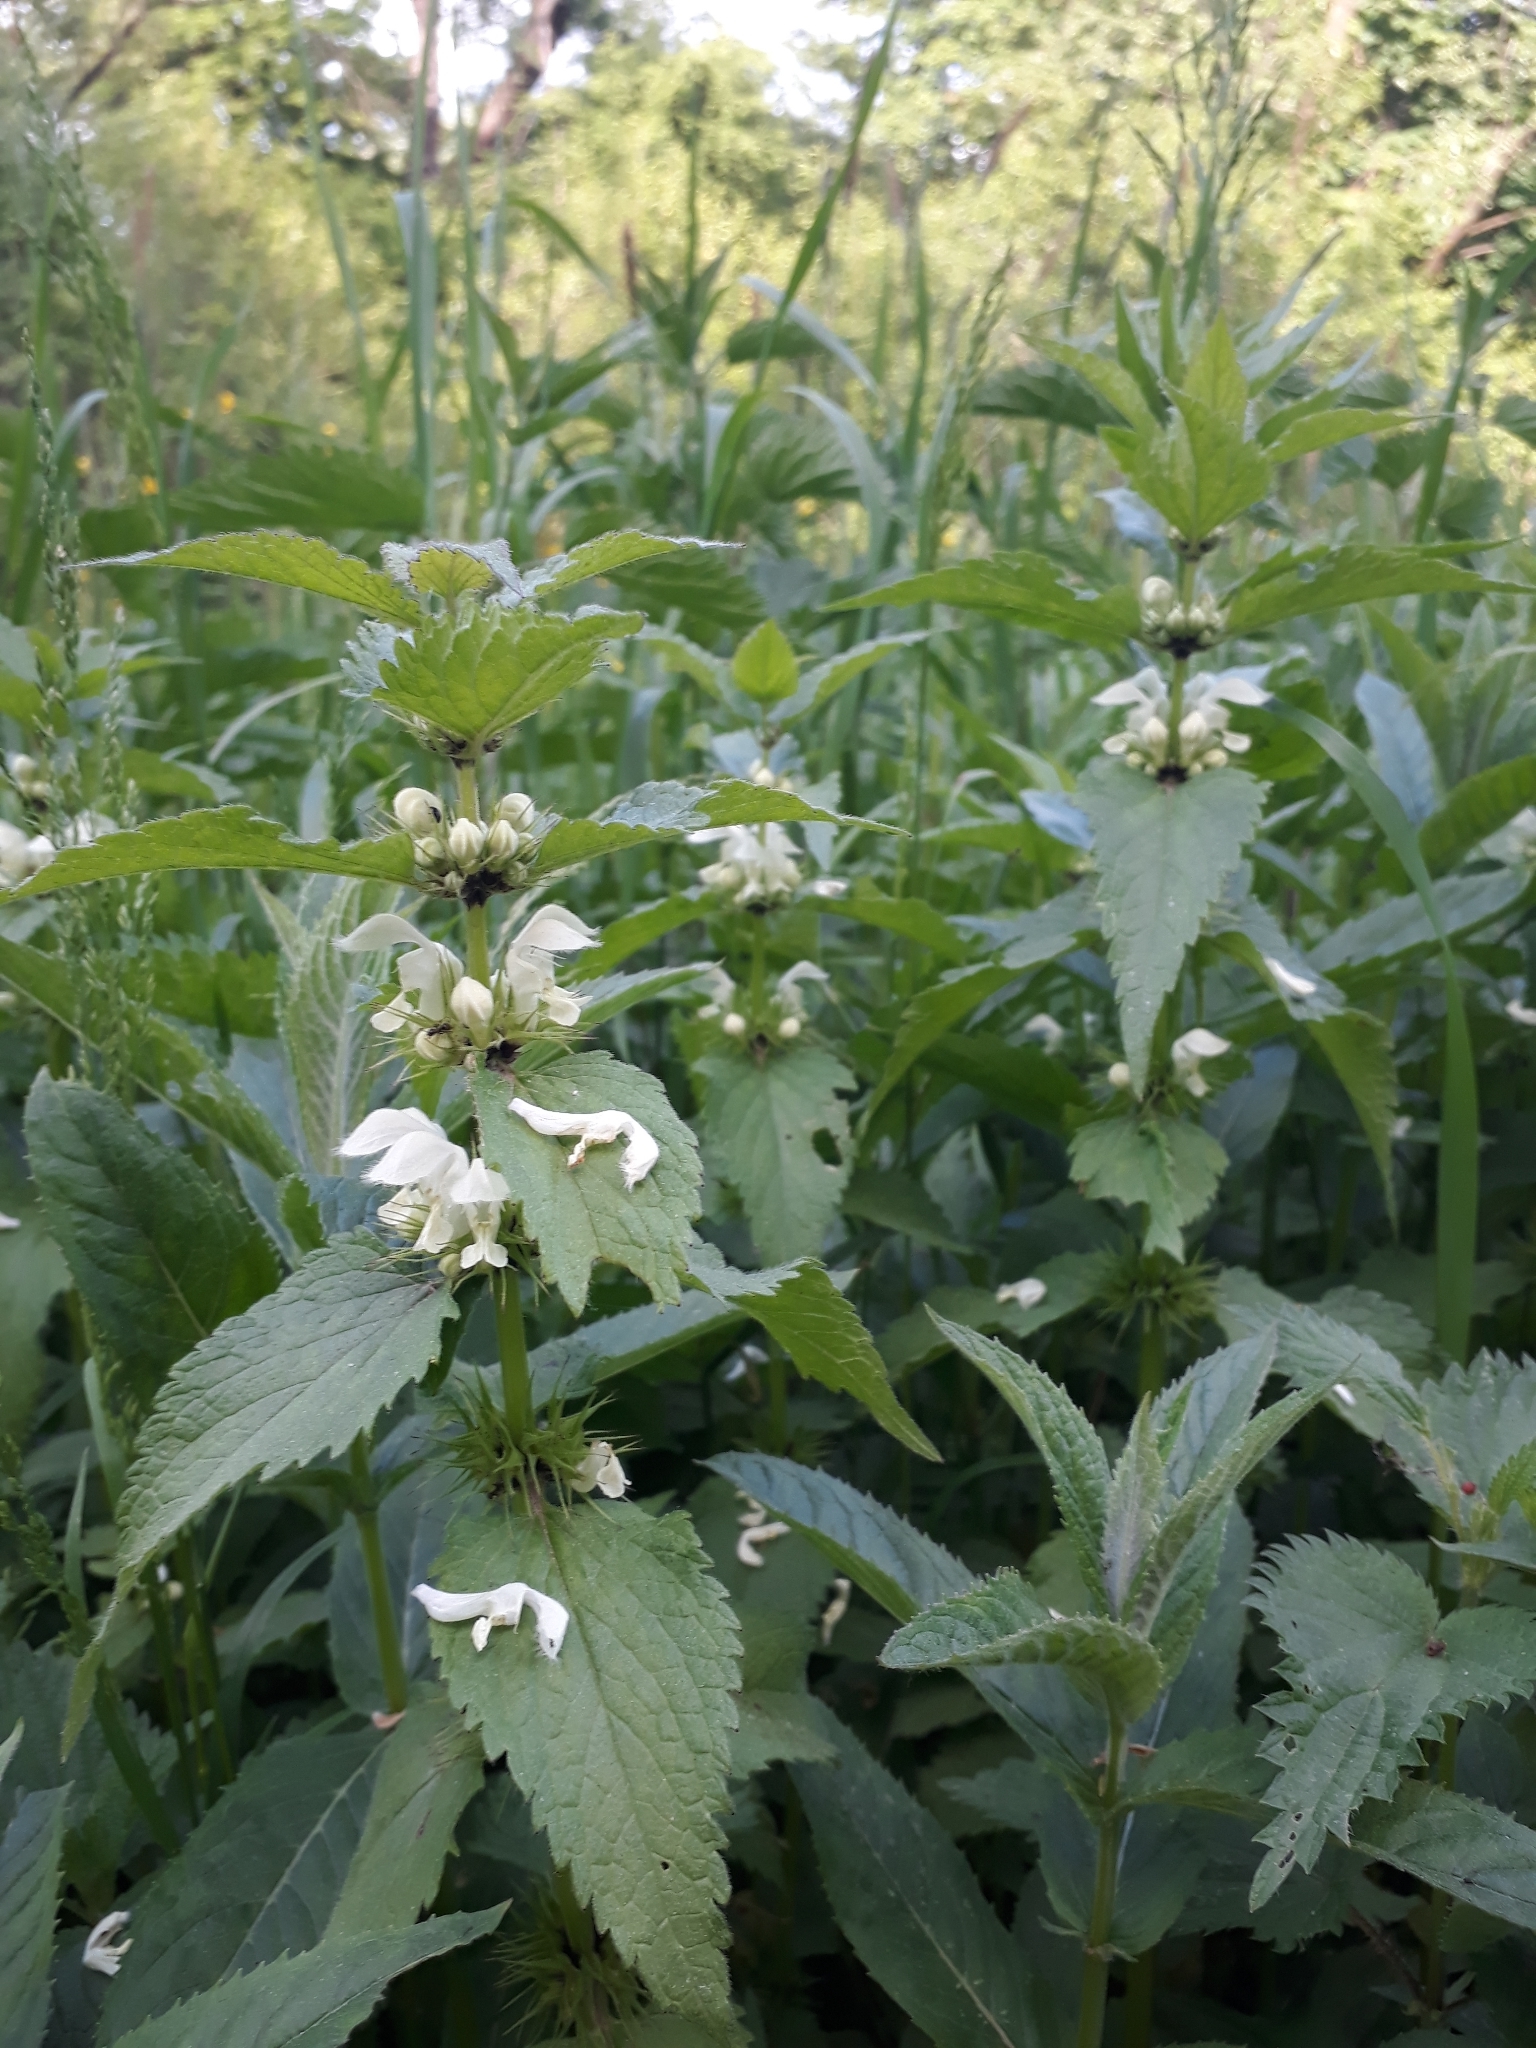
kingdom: Plantae
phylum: Tracheophyta
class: Magnoliopsida
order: Lamiales
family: Lamiaceae
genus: Lamium
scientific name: Lamium album
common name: White dead-nettle
